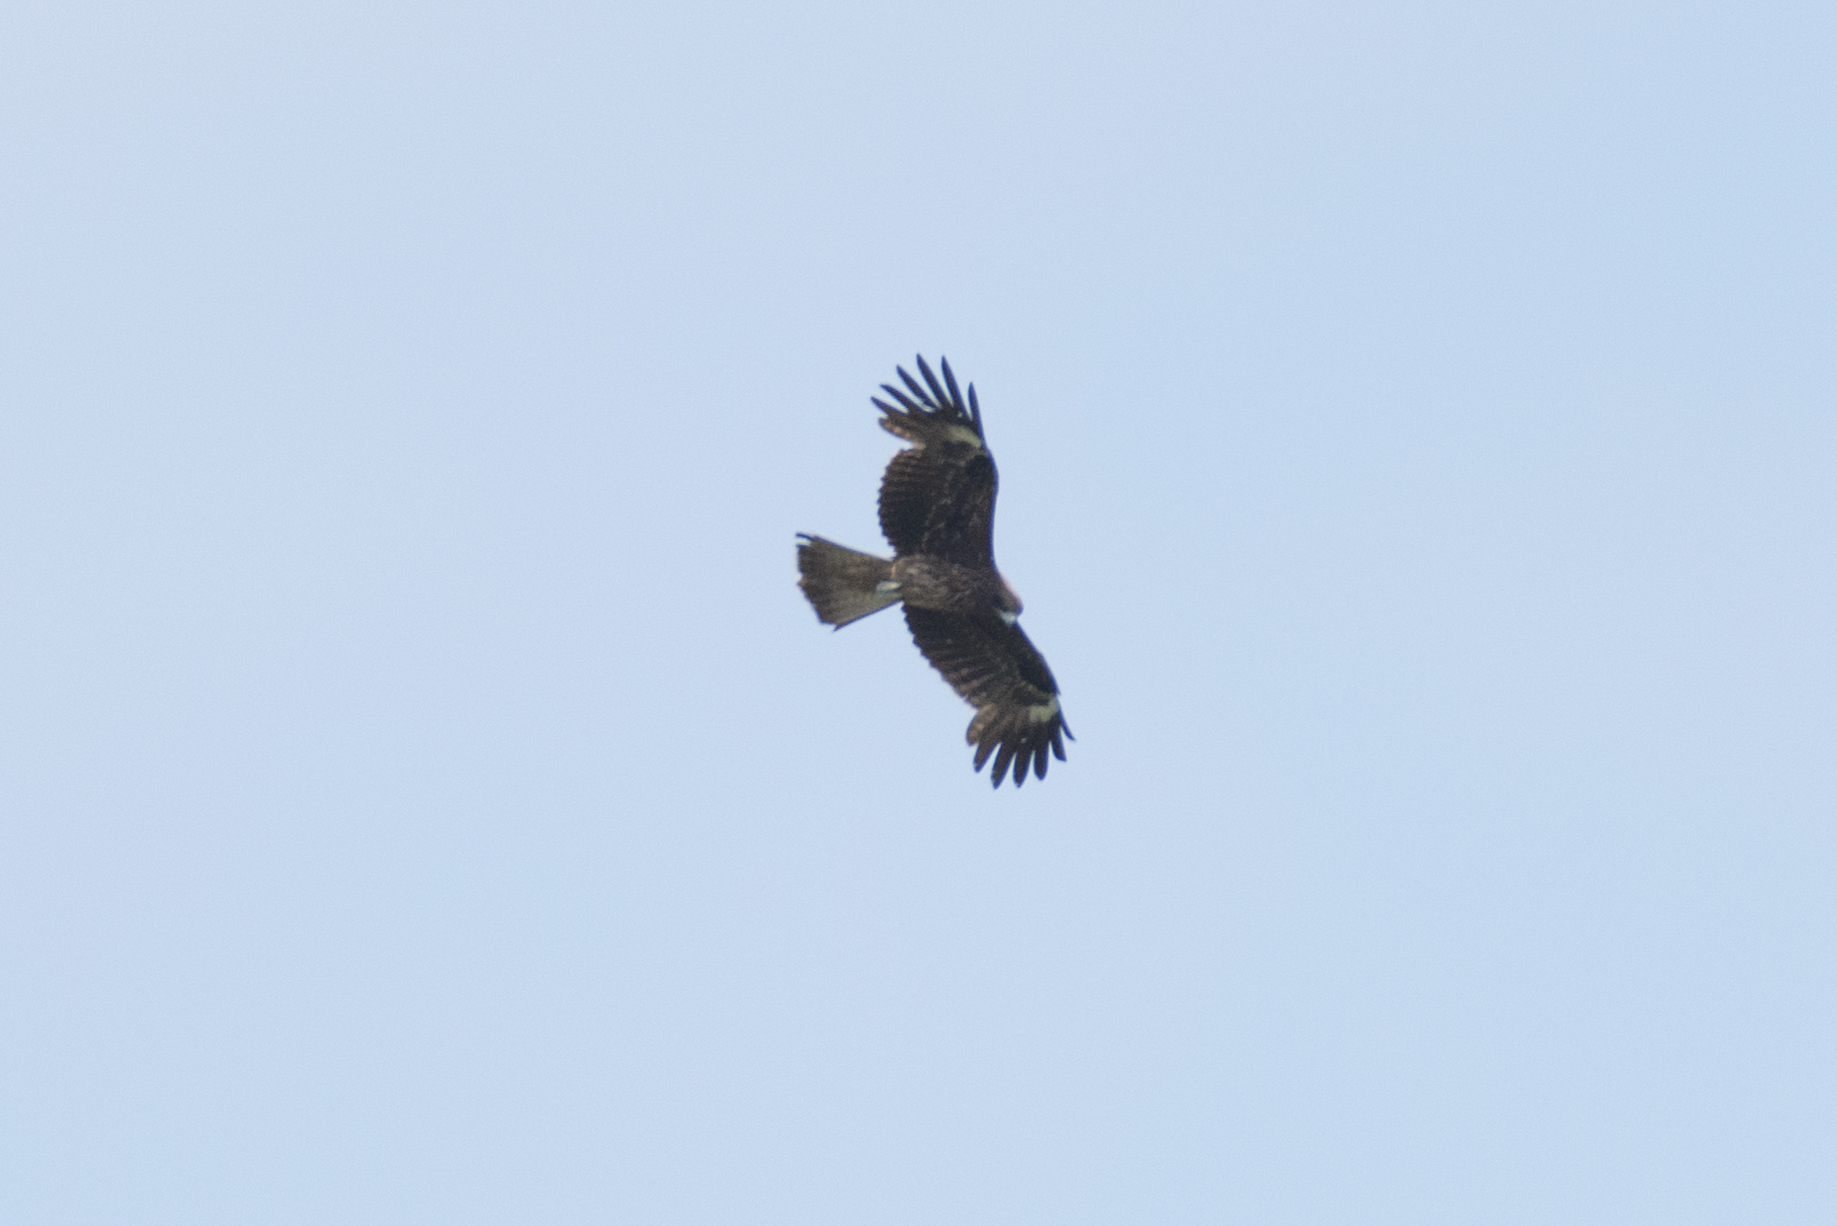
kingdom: Animalia
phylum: Chordata
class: Aves
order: Accipitriformes
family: Accipitridae
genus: Milvus
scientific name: Milvus migrans
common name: Black kite
